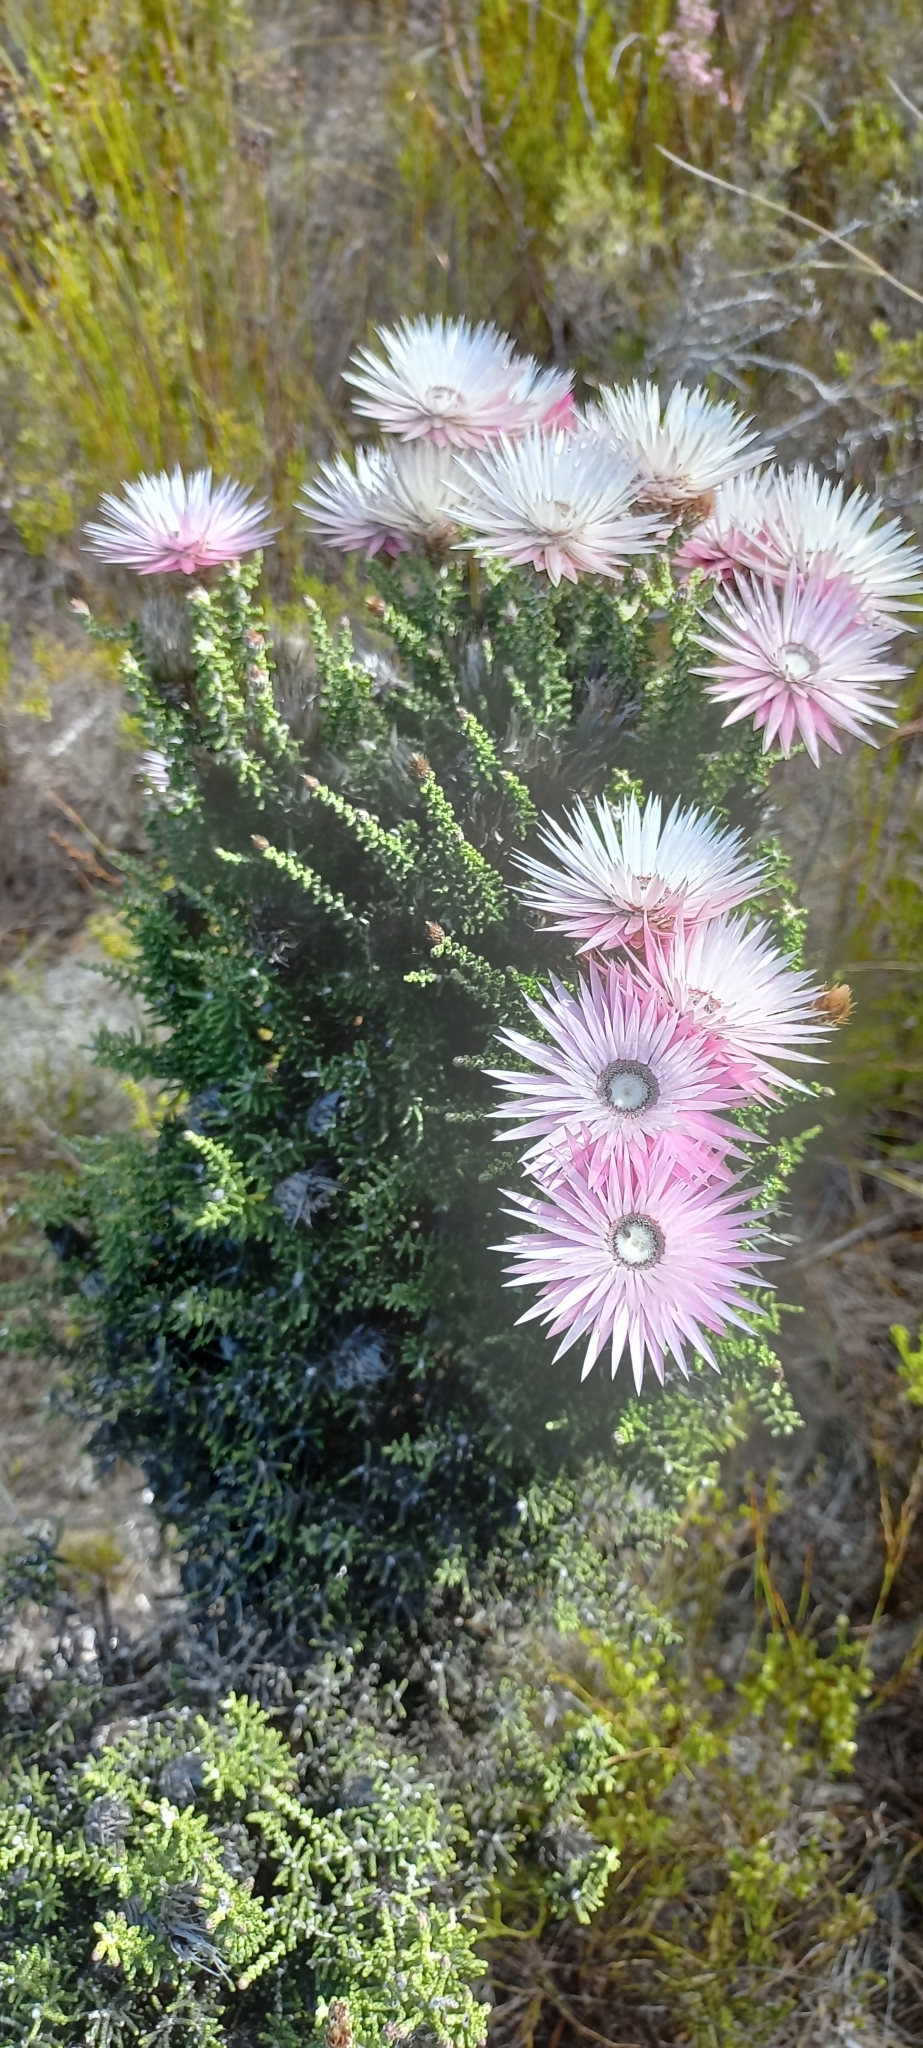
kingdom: Plantae
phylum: Tracheophyta
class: Magnoliopsida
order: Asterales
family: Asteraceae
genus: Phaenocoma
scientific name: Phaenocoma prolifera
